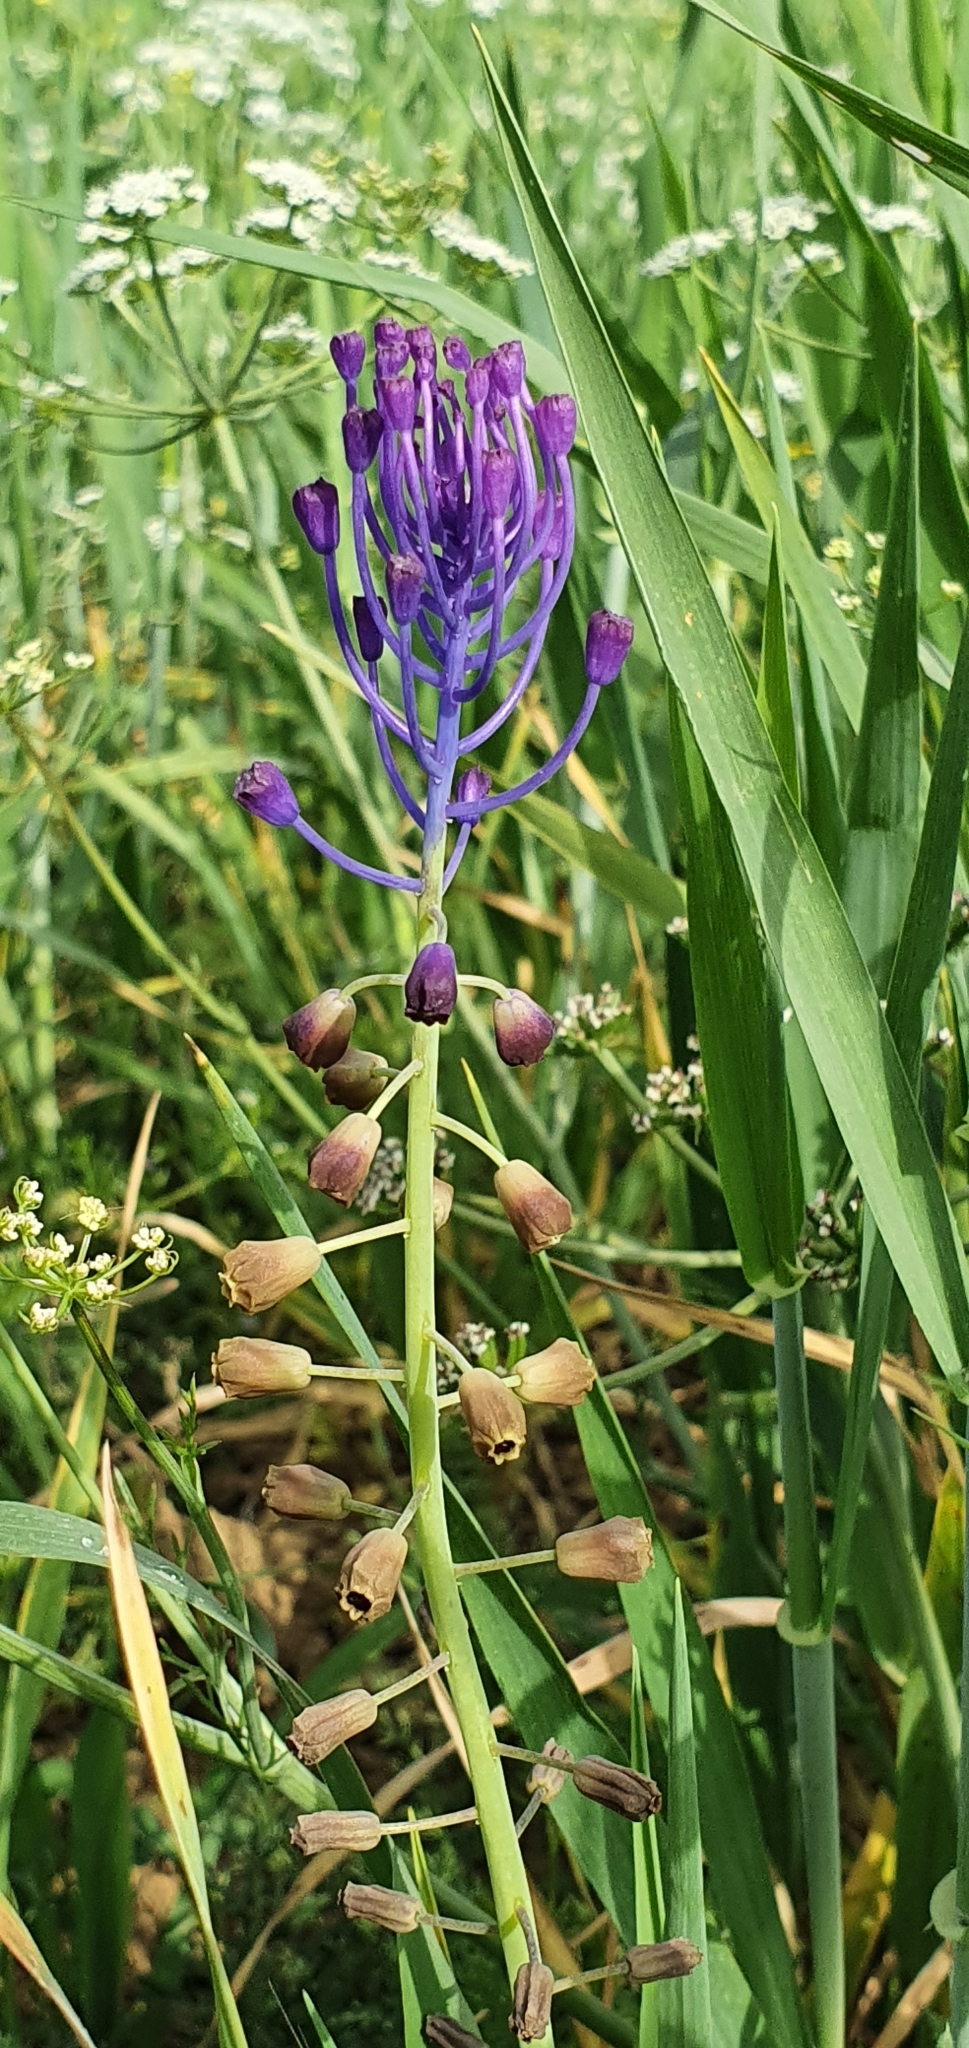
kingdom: Plantae
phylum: Tracheophyta
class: Liliopsida
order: Asparagales
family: Asparagaceae
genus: Muscari
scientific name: Muscari comosum
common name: Tassel hyacinth
